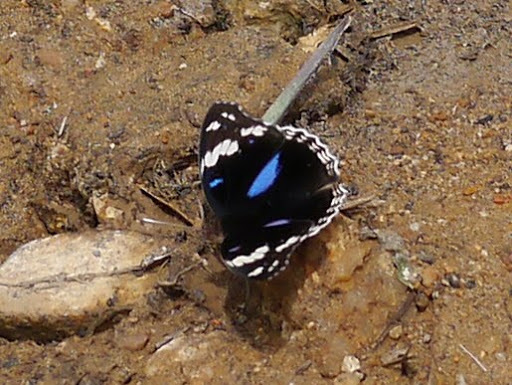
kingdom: Animalia
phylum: Arthropoda
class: Insecta
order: Lepidoptera
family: Nymphalidae
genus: Junonia
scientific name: Junonia oenone
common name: Dark blue pansy
